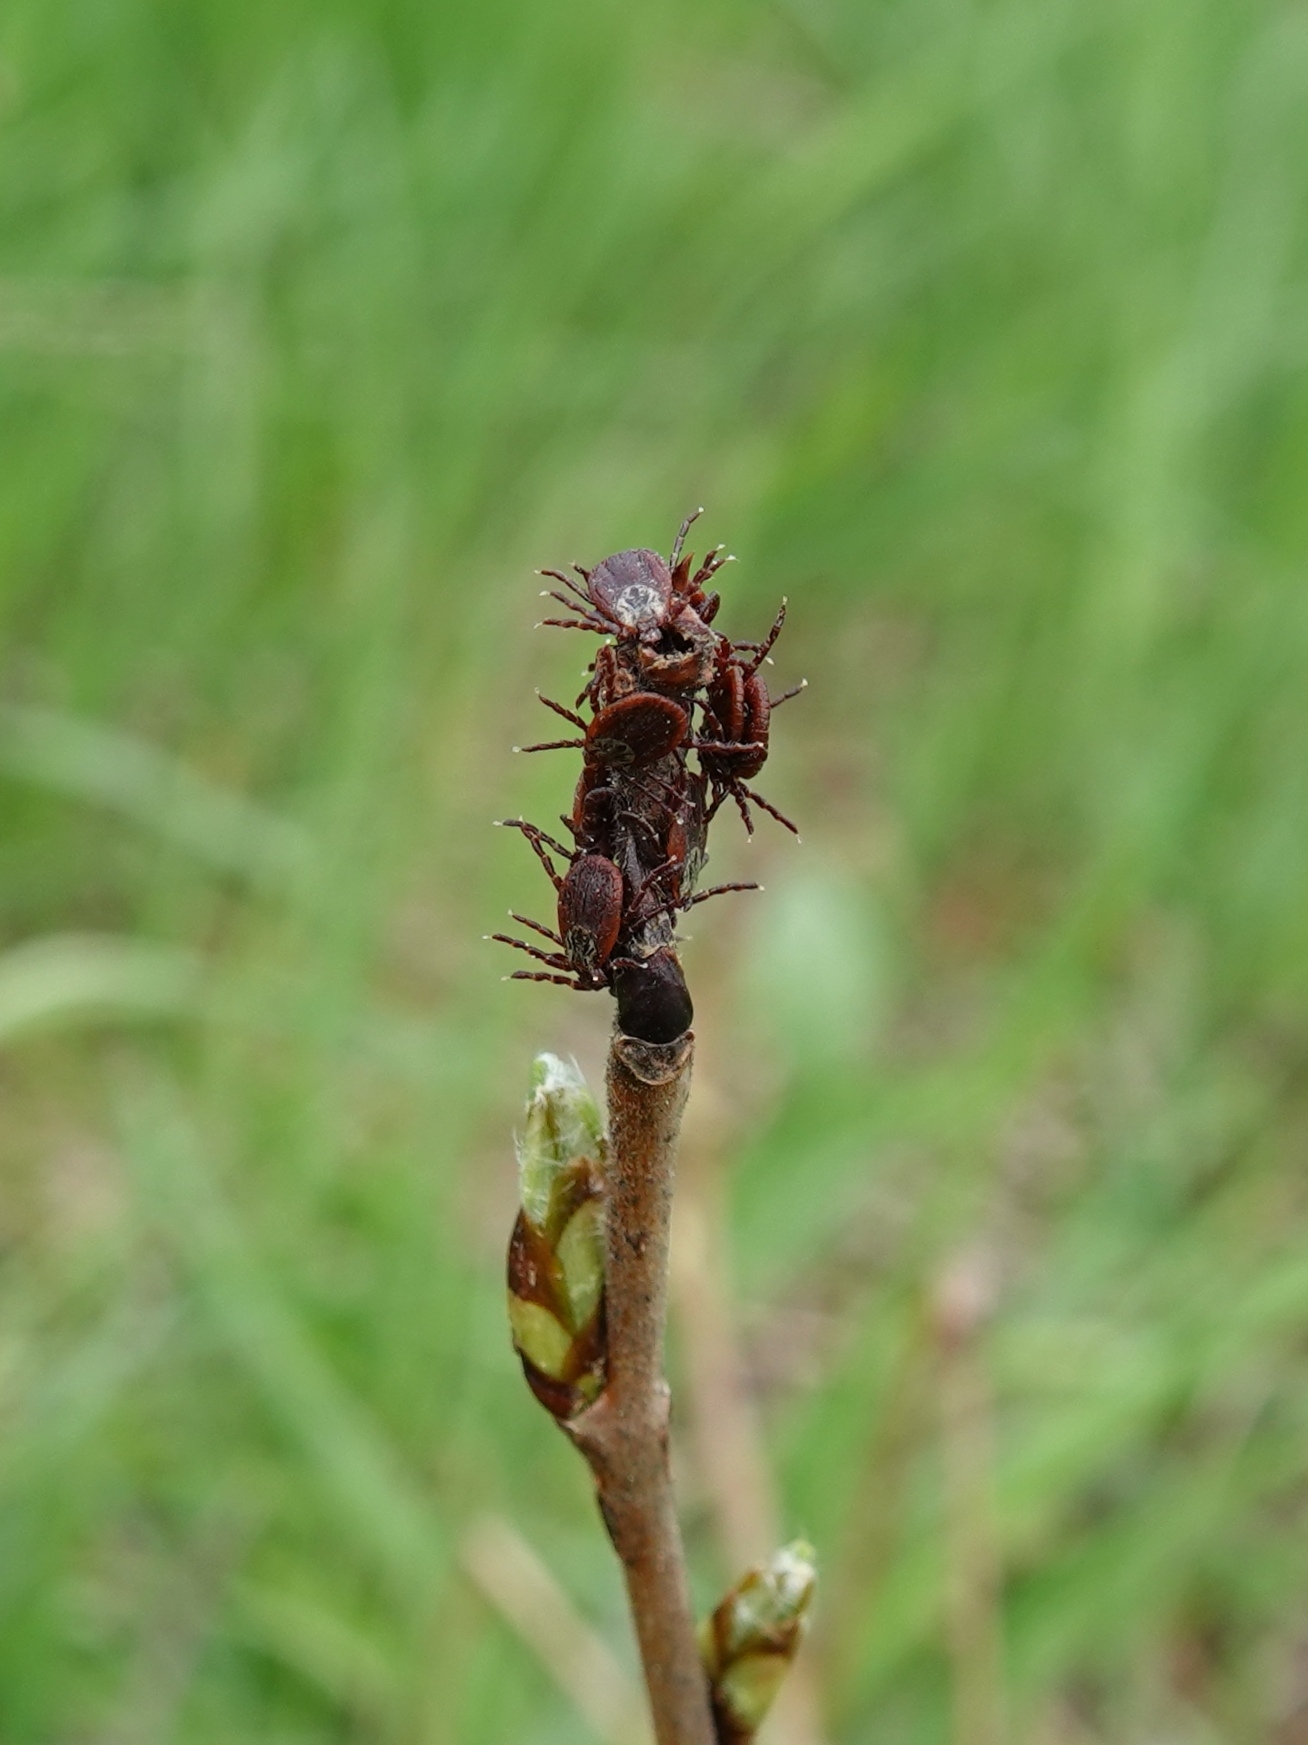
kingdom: Animalia
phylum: Arthropoda
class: Arachnida
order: Ixodida
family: Ixodidae
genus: Dermacentor
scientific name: Dermacentor reticulatus
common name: Ornate cow tick
